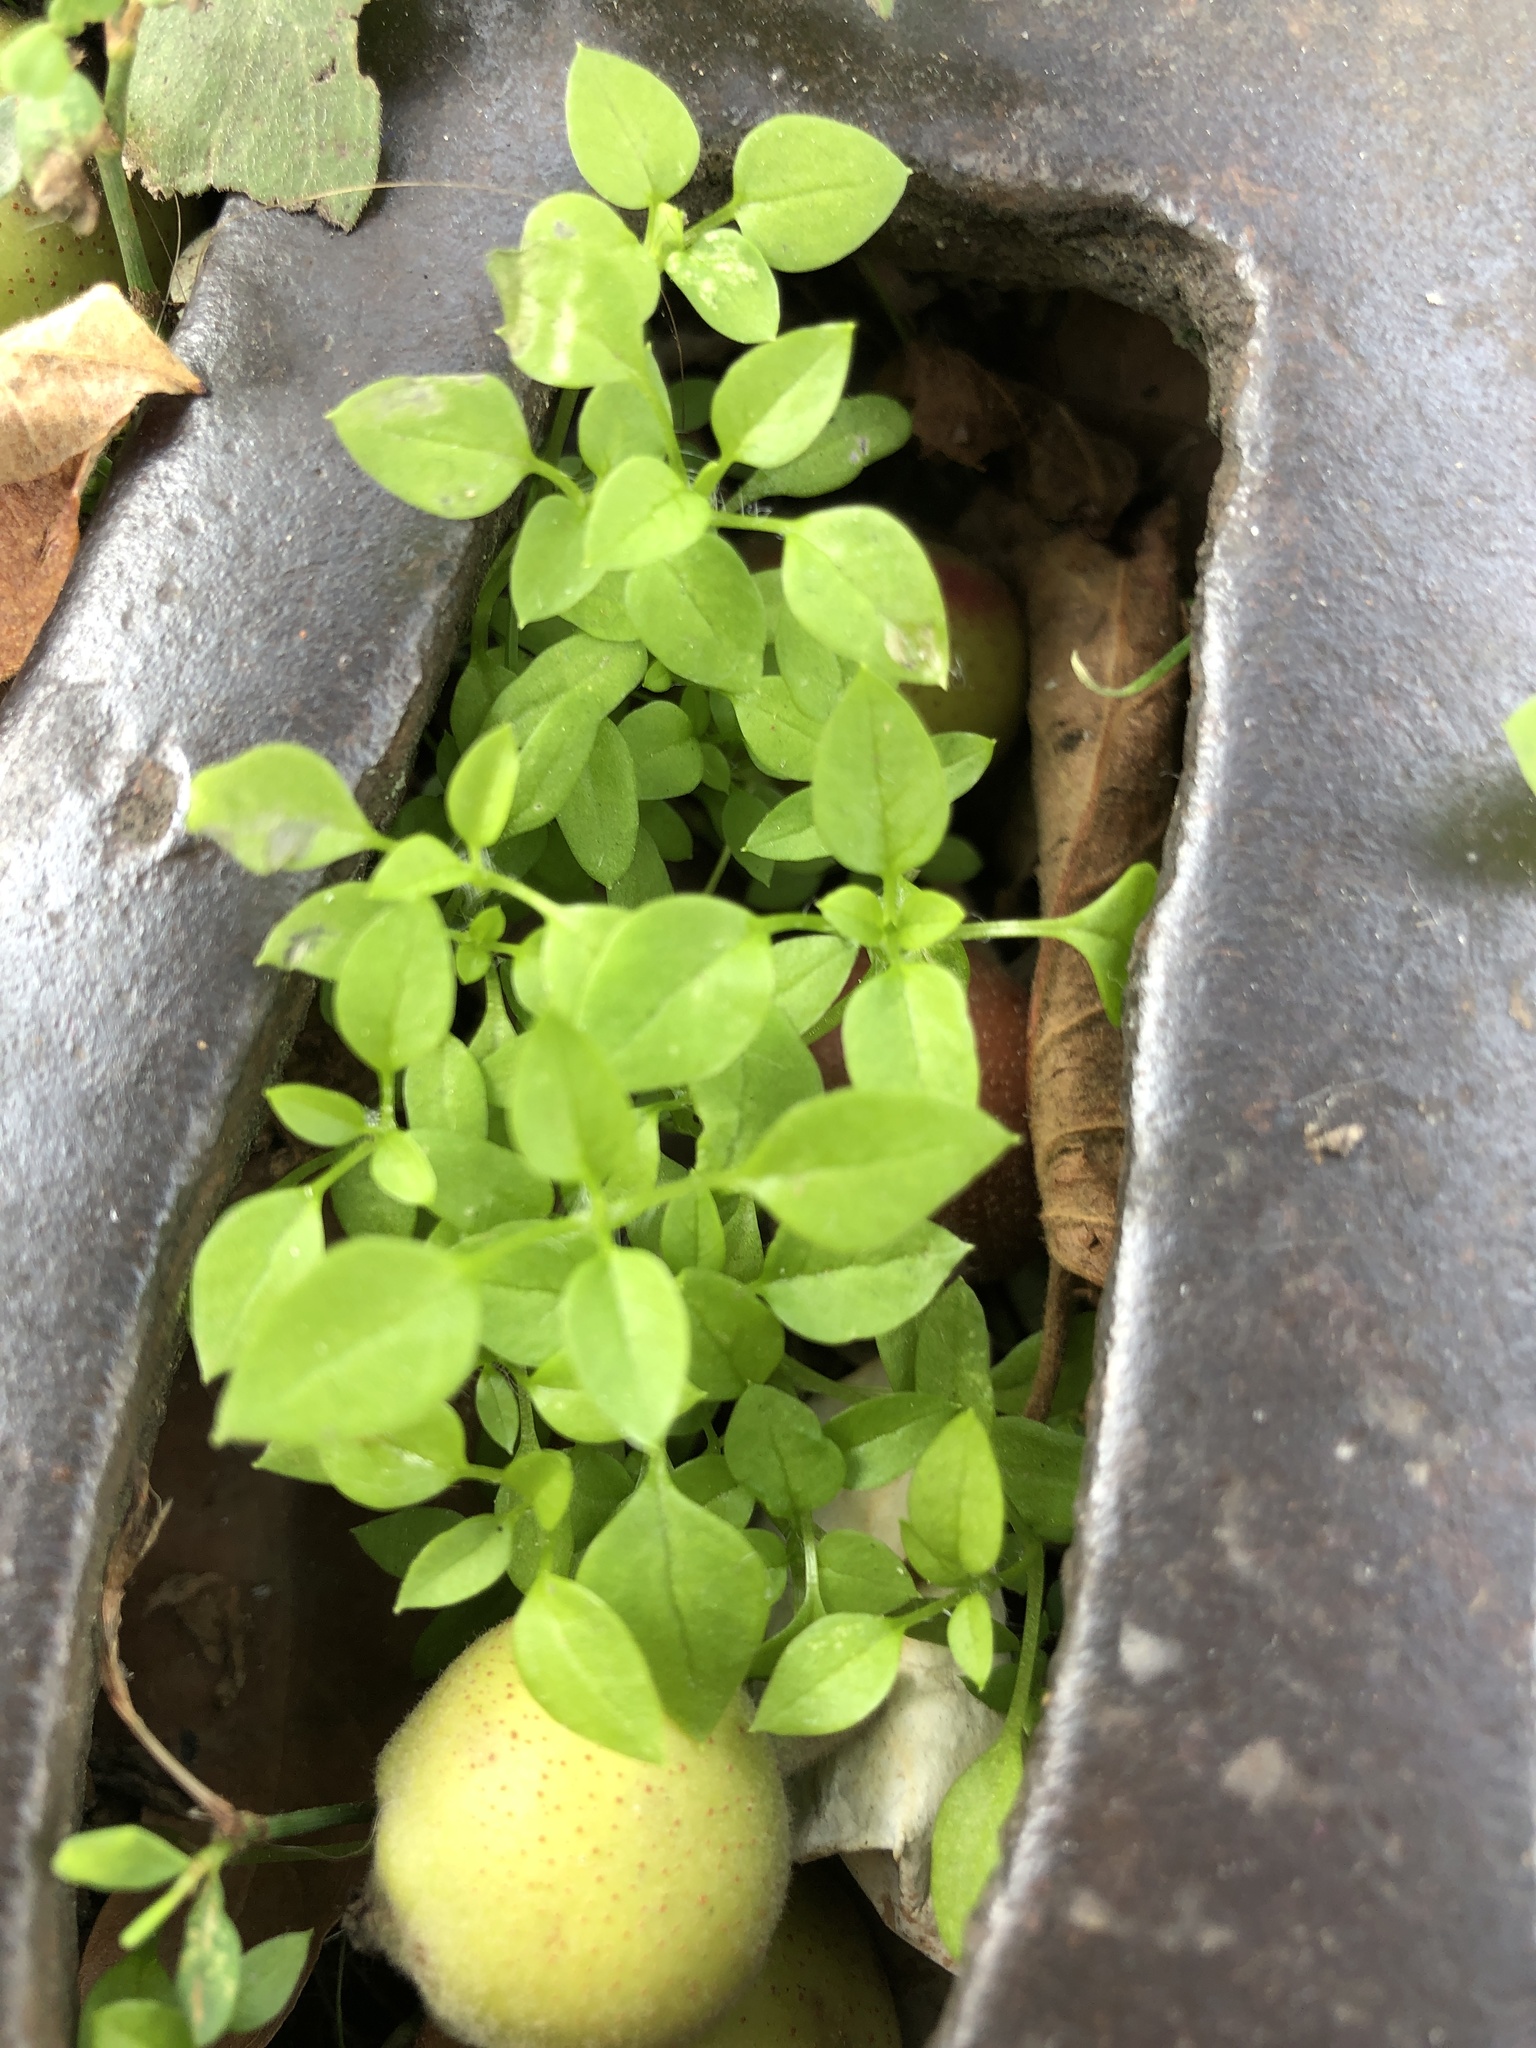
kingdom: Plantae
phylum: Tracheophyta
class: Magnoliopsida
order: Caryophyllales
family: Caryophyllaceae
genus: Stellaria
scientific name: Stellaria media
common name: Common chickweed
